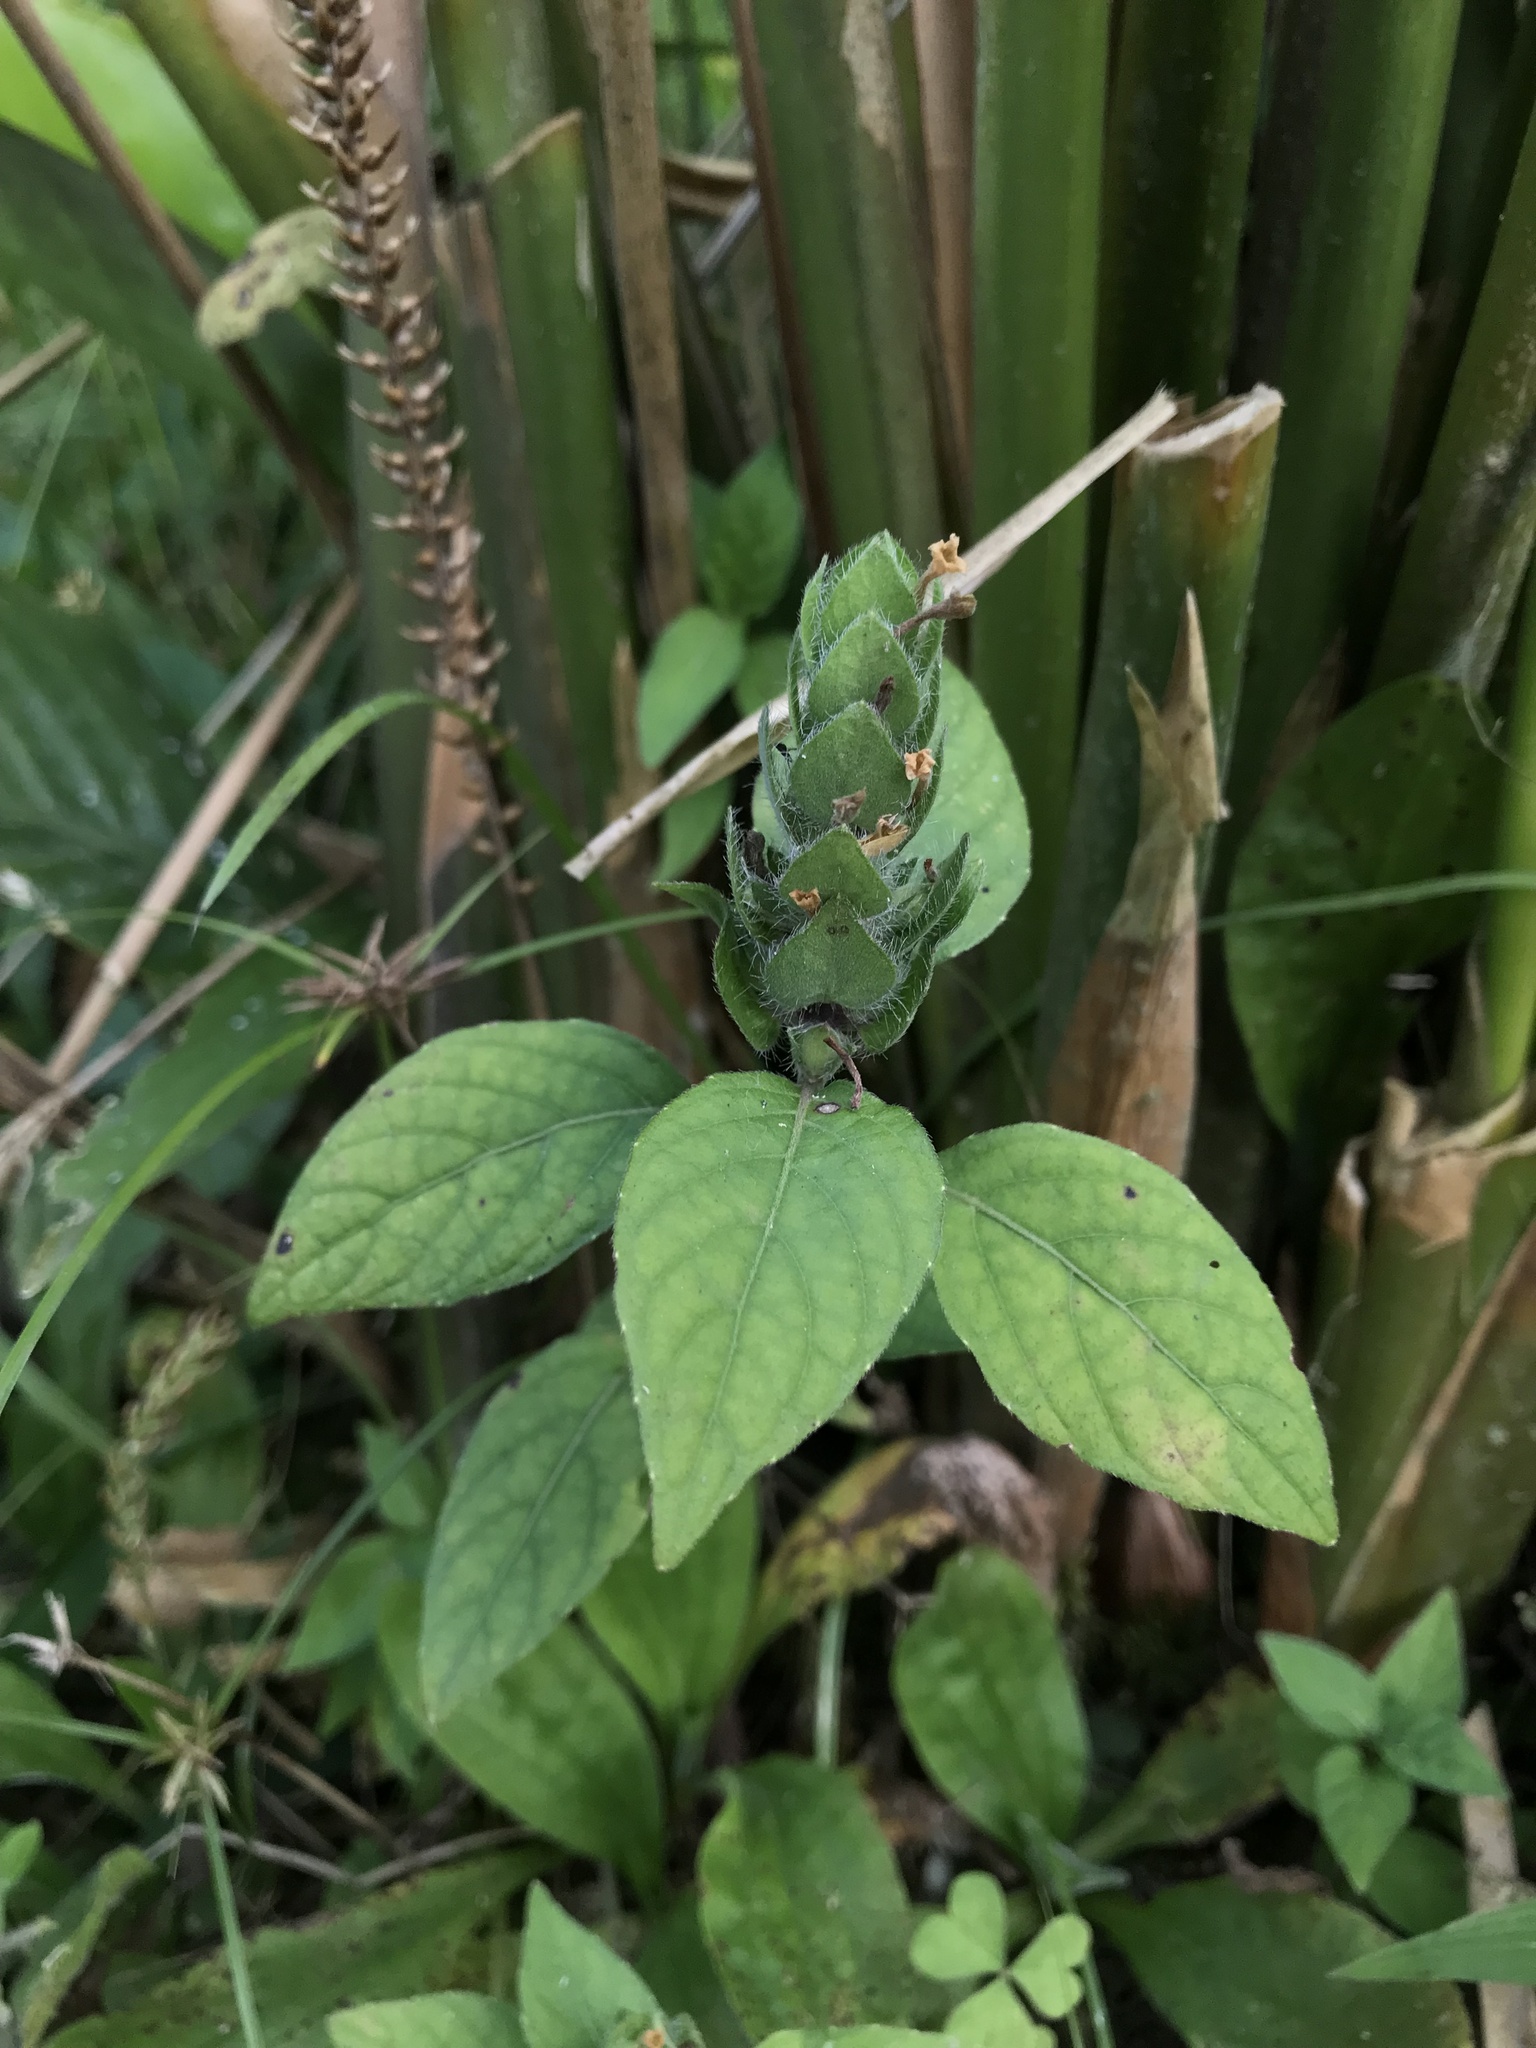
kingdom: Plantae
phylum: Tracheophyta
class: Magnoliopsida
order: Lamiales
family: Acanthaceae
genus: Ruellia
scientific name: Ruellia blechum
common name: Browne's blechum
